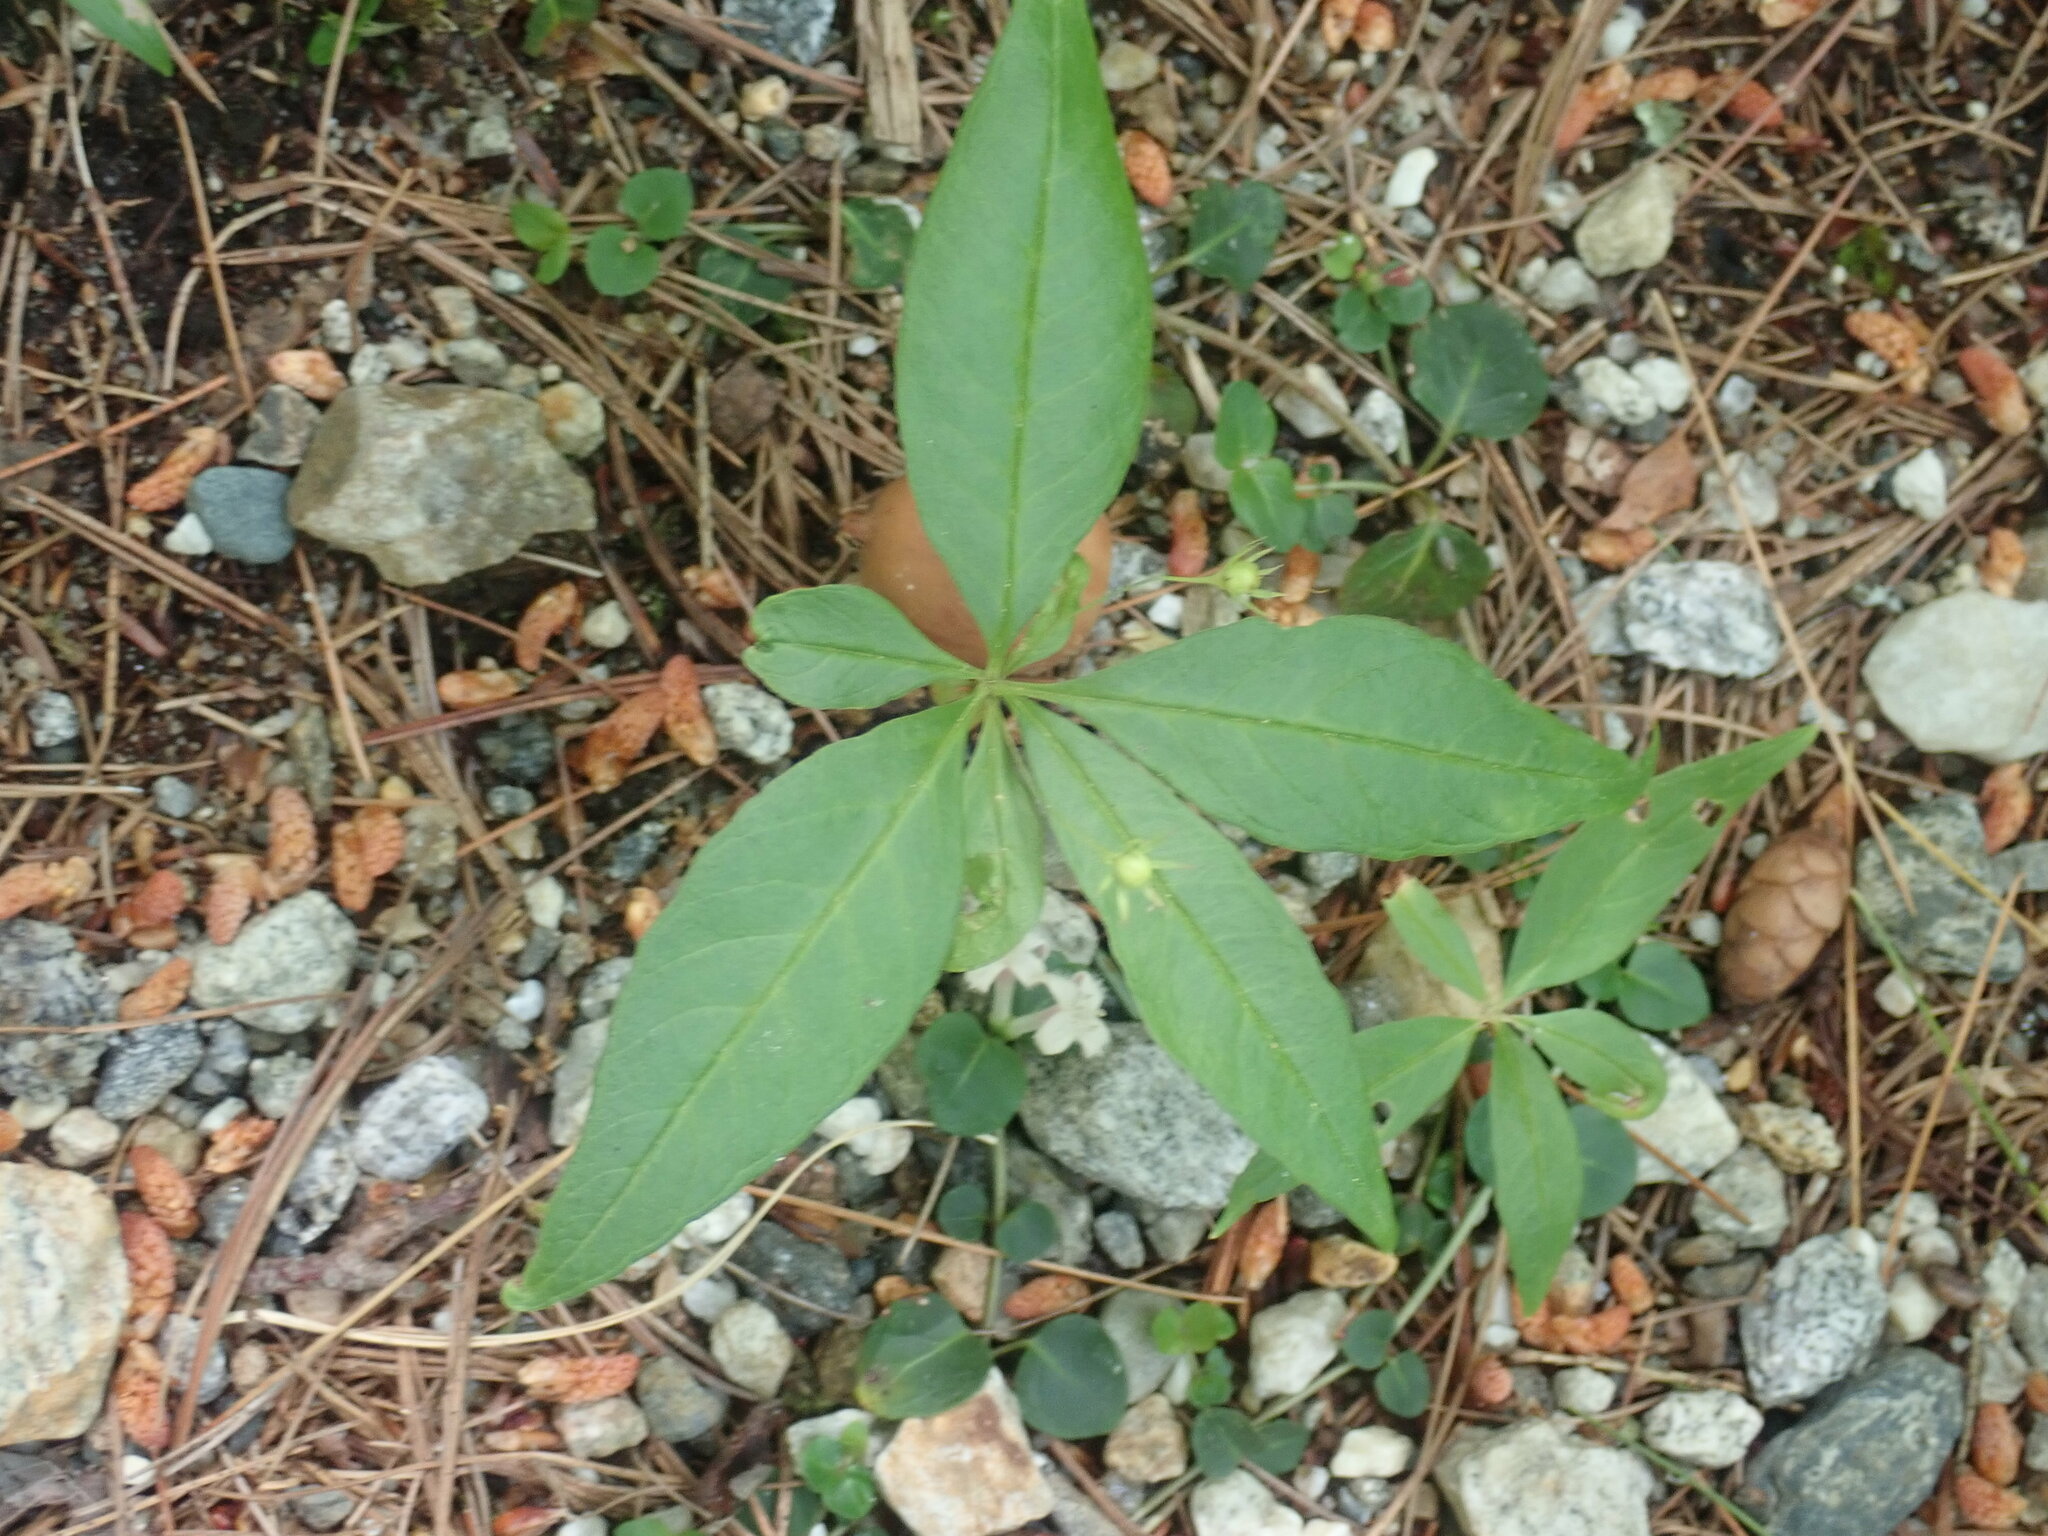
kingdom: Plantae
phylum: Tracheophyta
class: Magnoliopsida
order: Ericales
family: Primulaceae
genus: Lysimachia
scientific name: Lysimachia borealis
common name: American starflower
